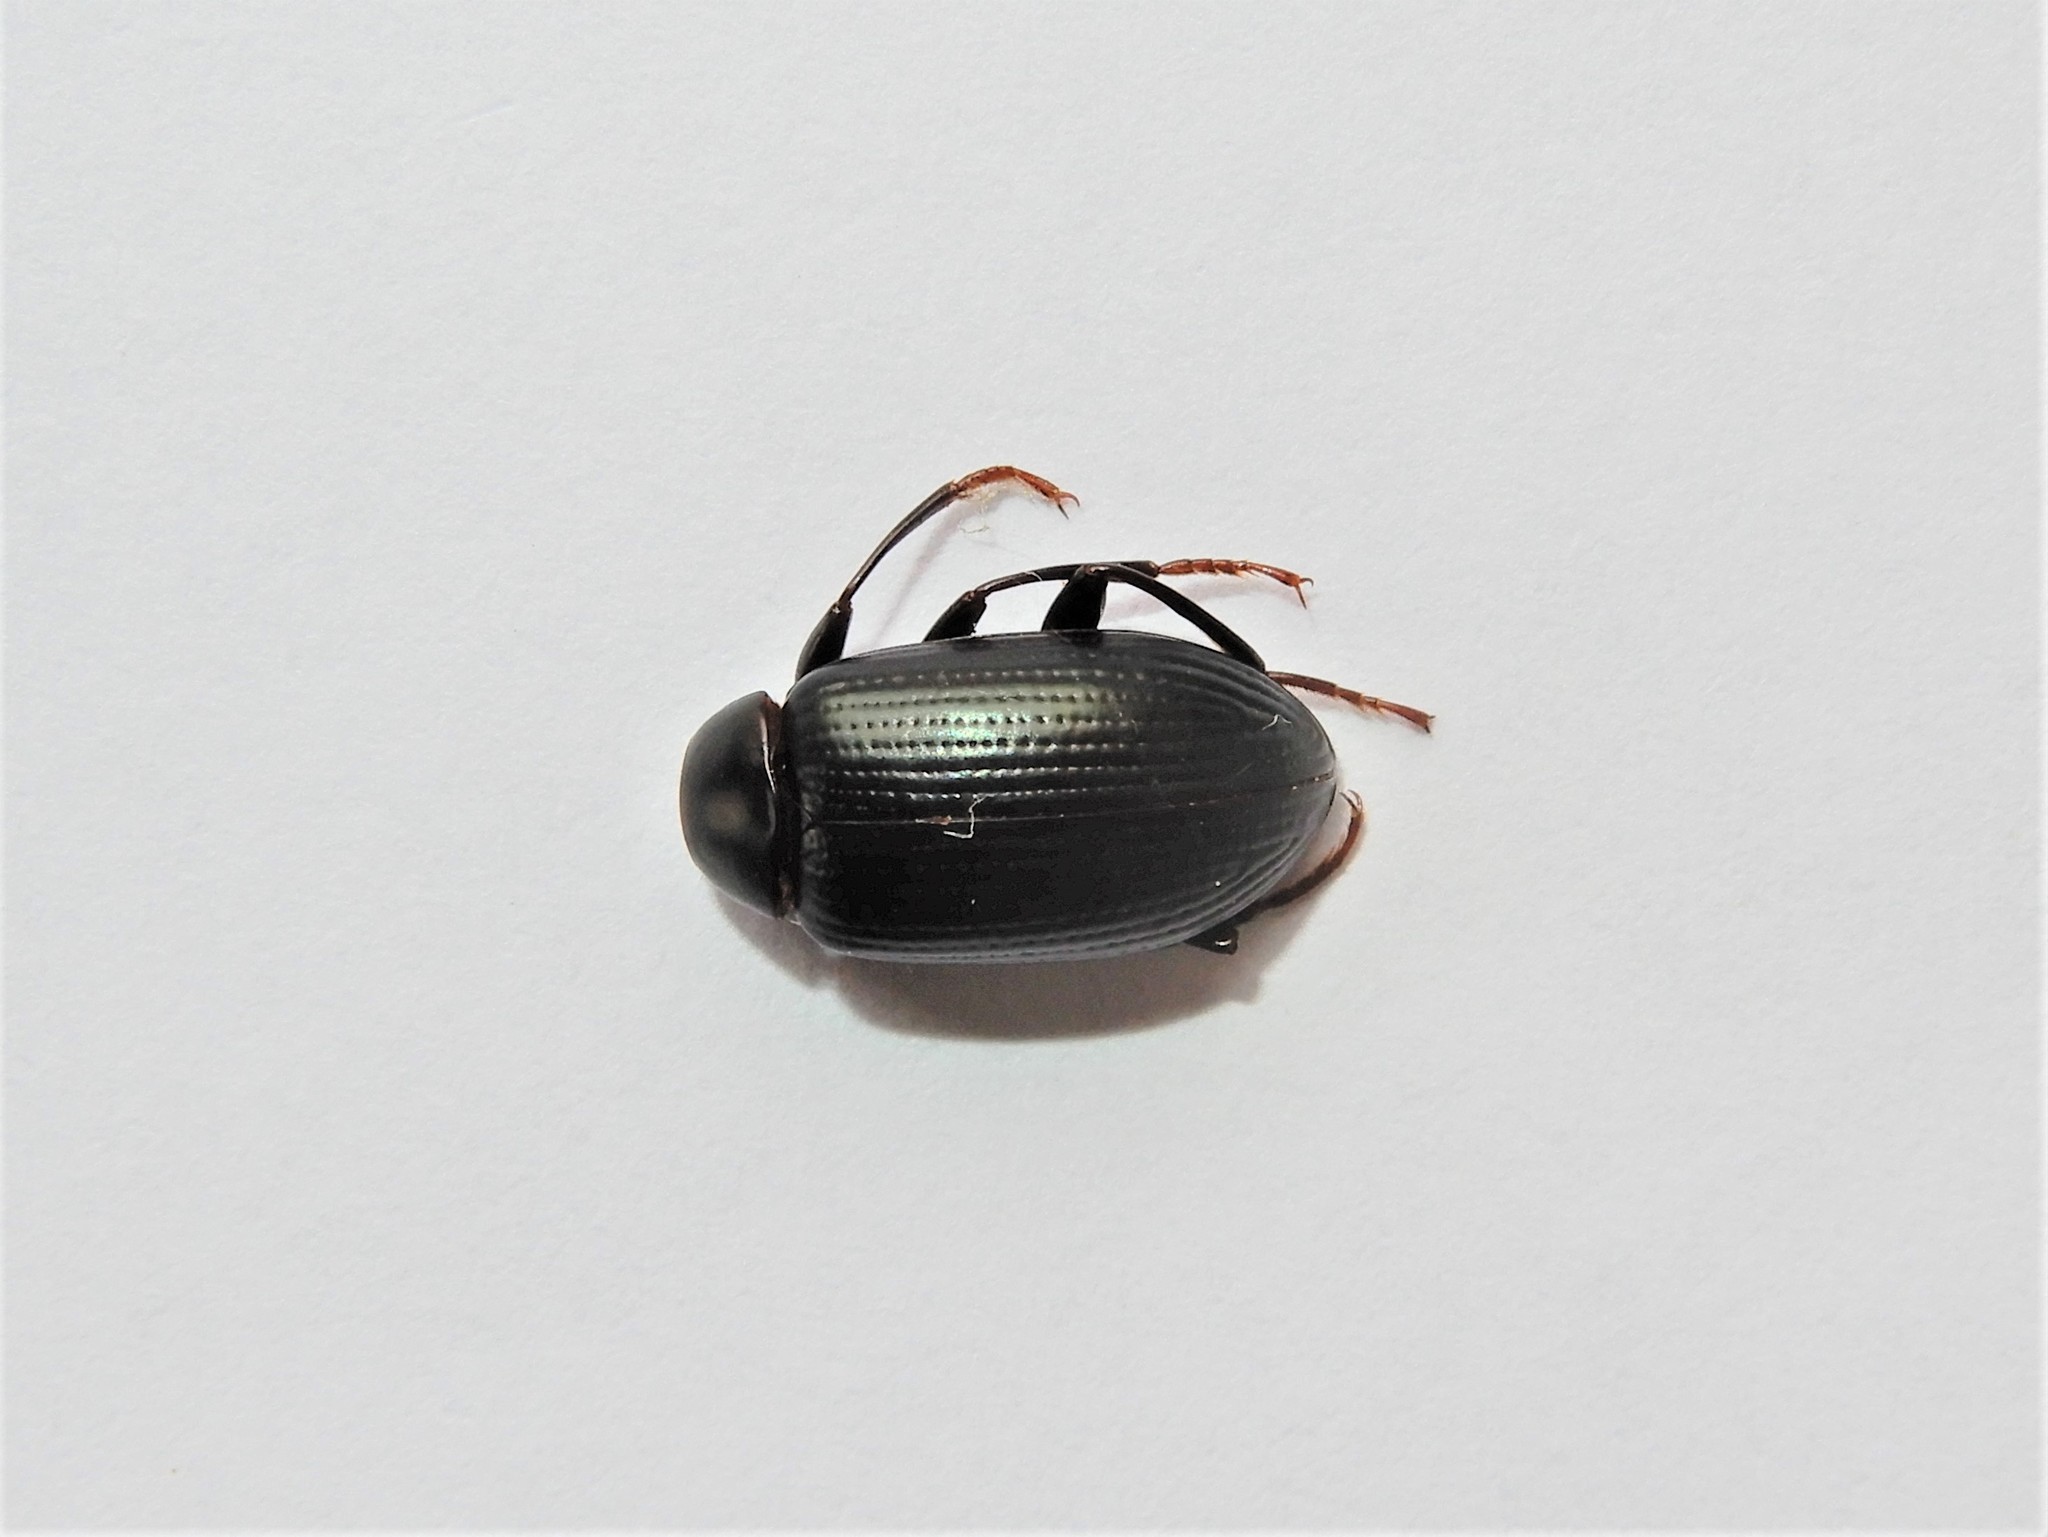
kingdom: Animalia
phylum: Arthropoda
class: Insecta
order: Coleoptera
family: Tenebrionidae
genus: Amarygmus
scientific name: Amarygmus
